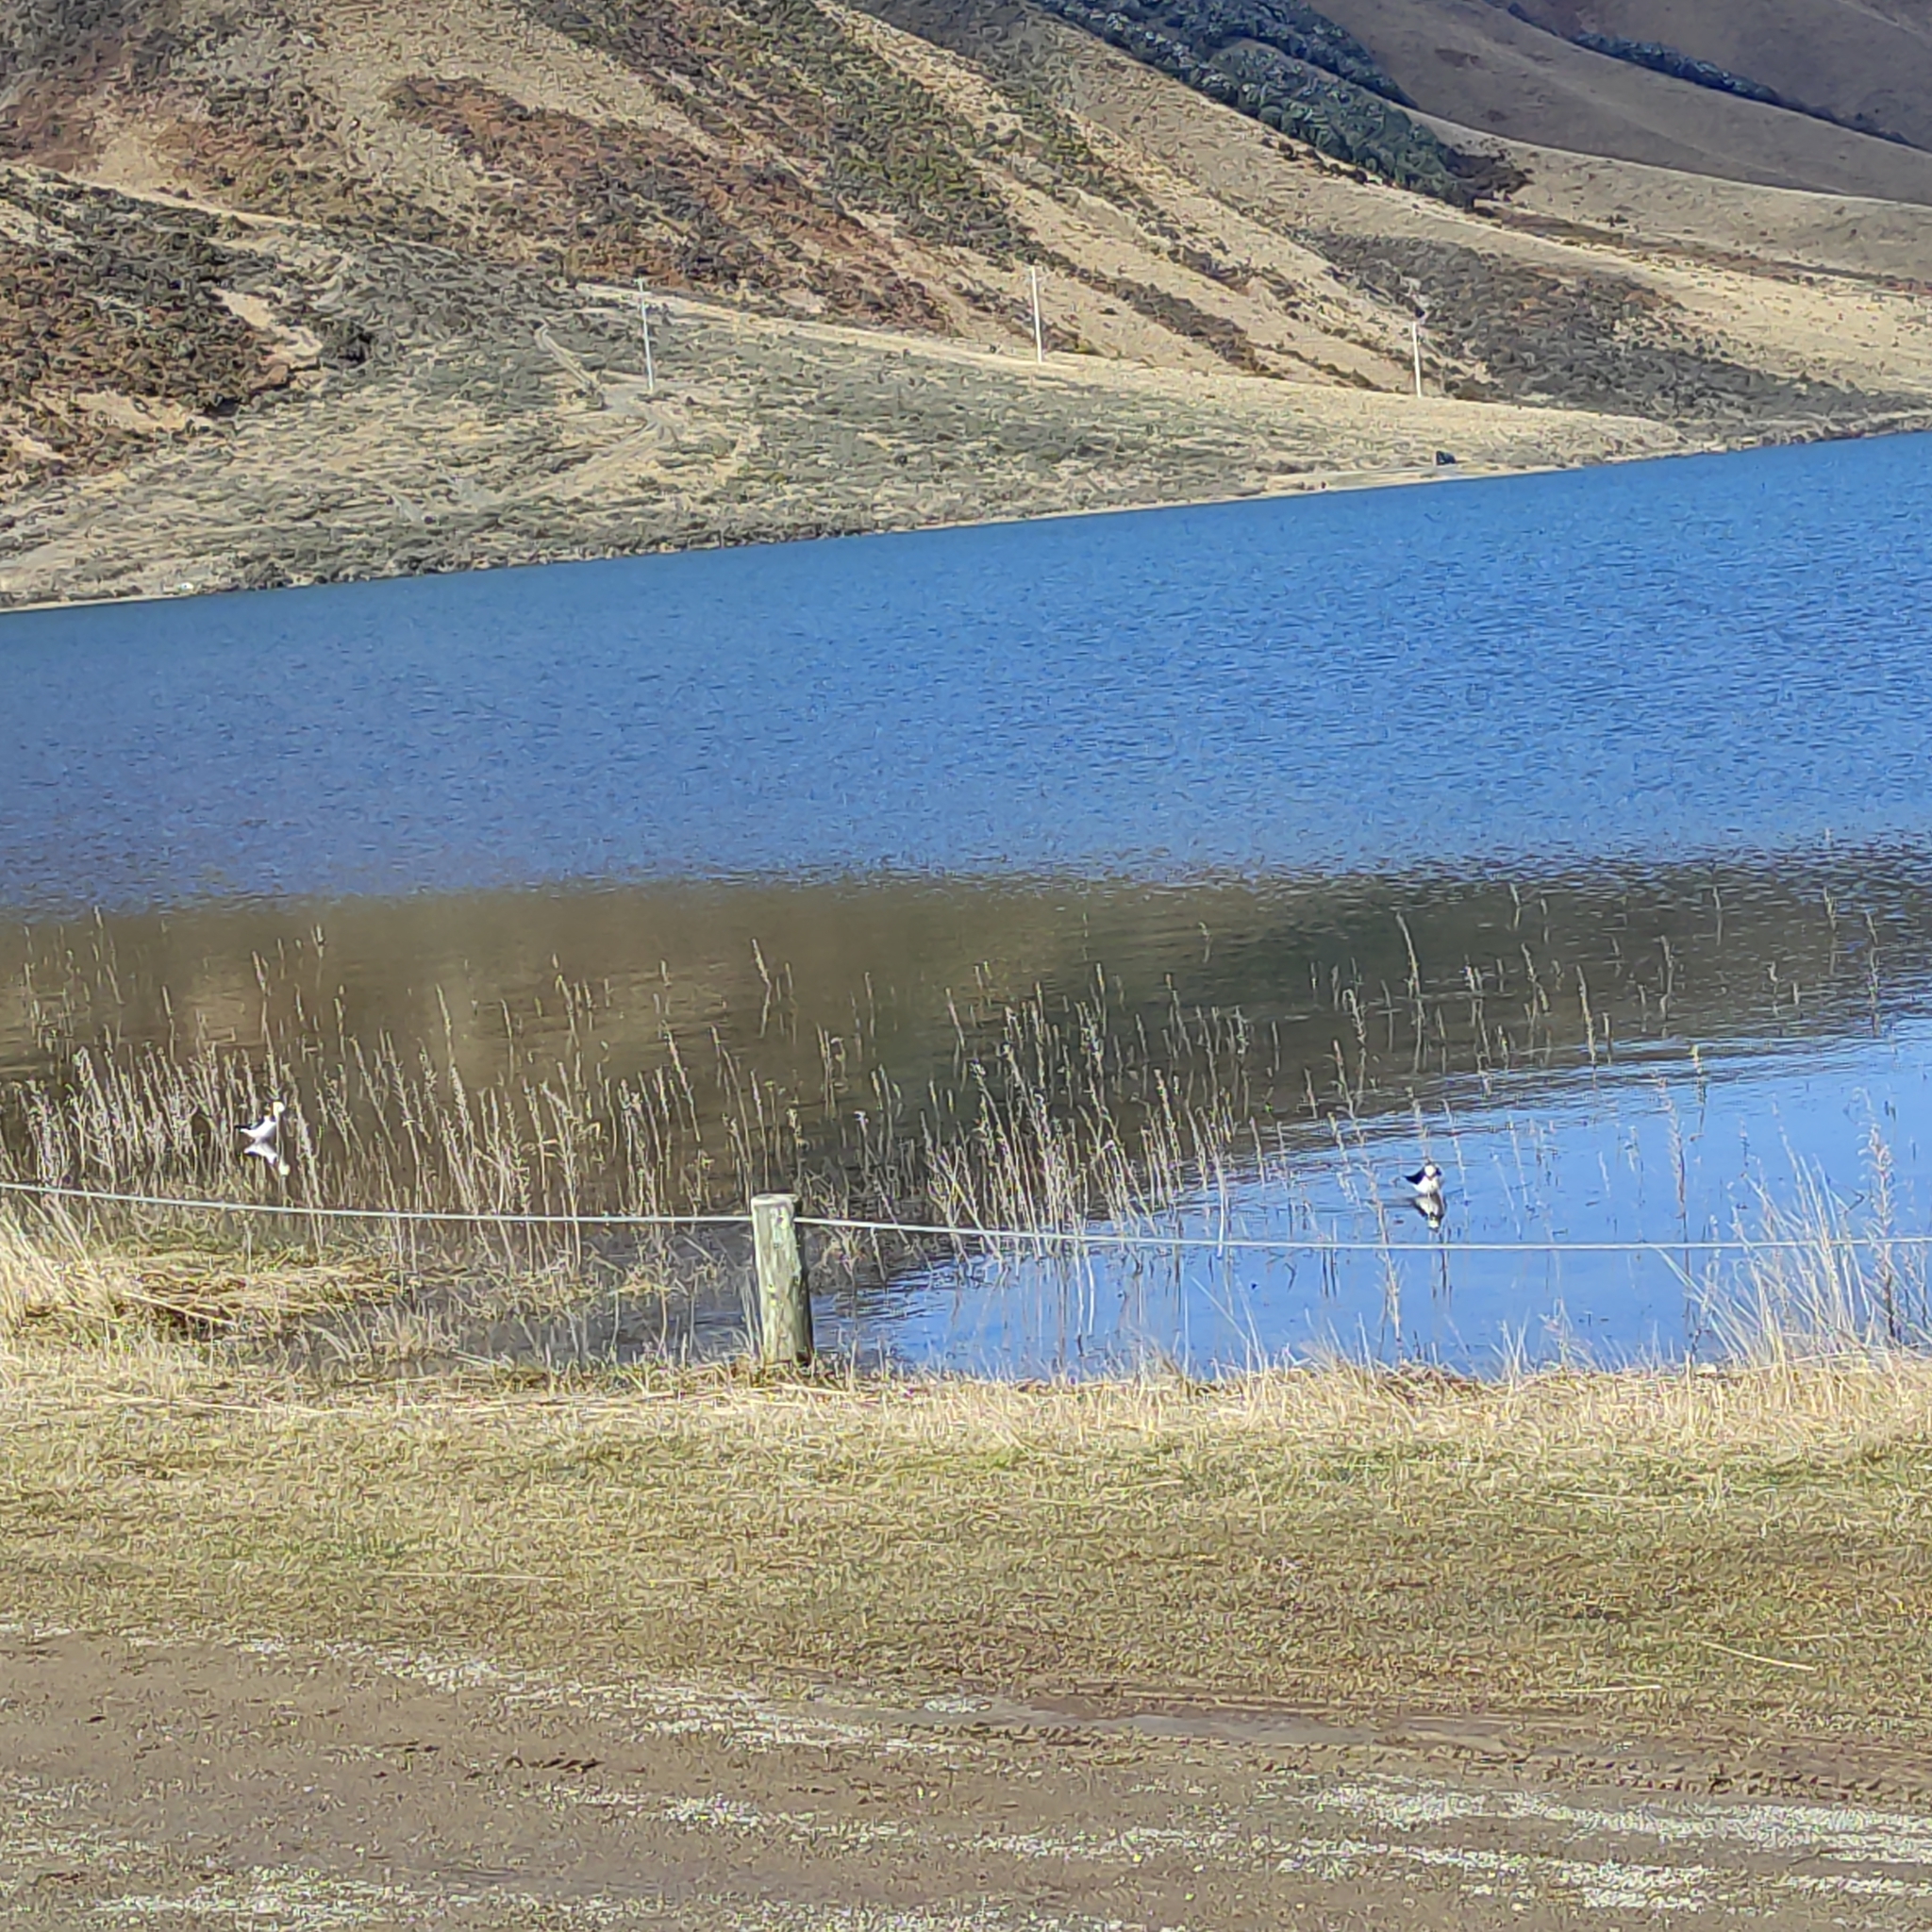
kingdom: Animalia
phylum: Chordata
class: Aves
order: Charadriiformes
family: Recurvirostridae
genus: Himantopus
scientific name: Himantopus leucocephalus
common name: White-headed stilt
